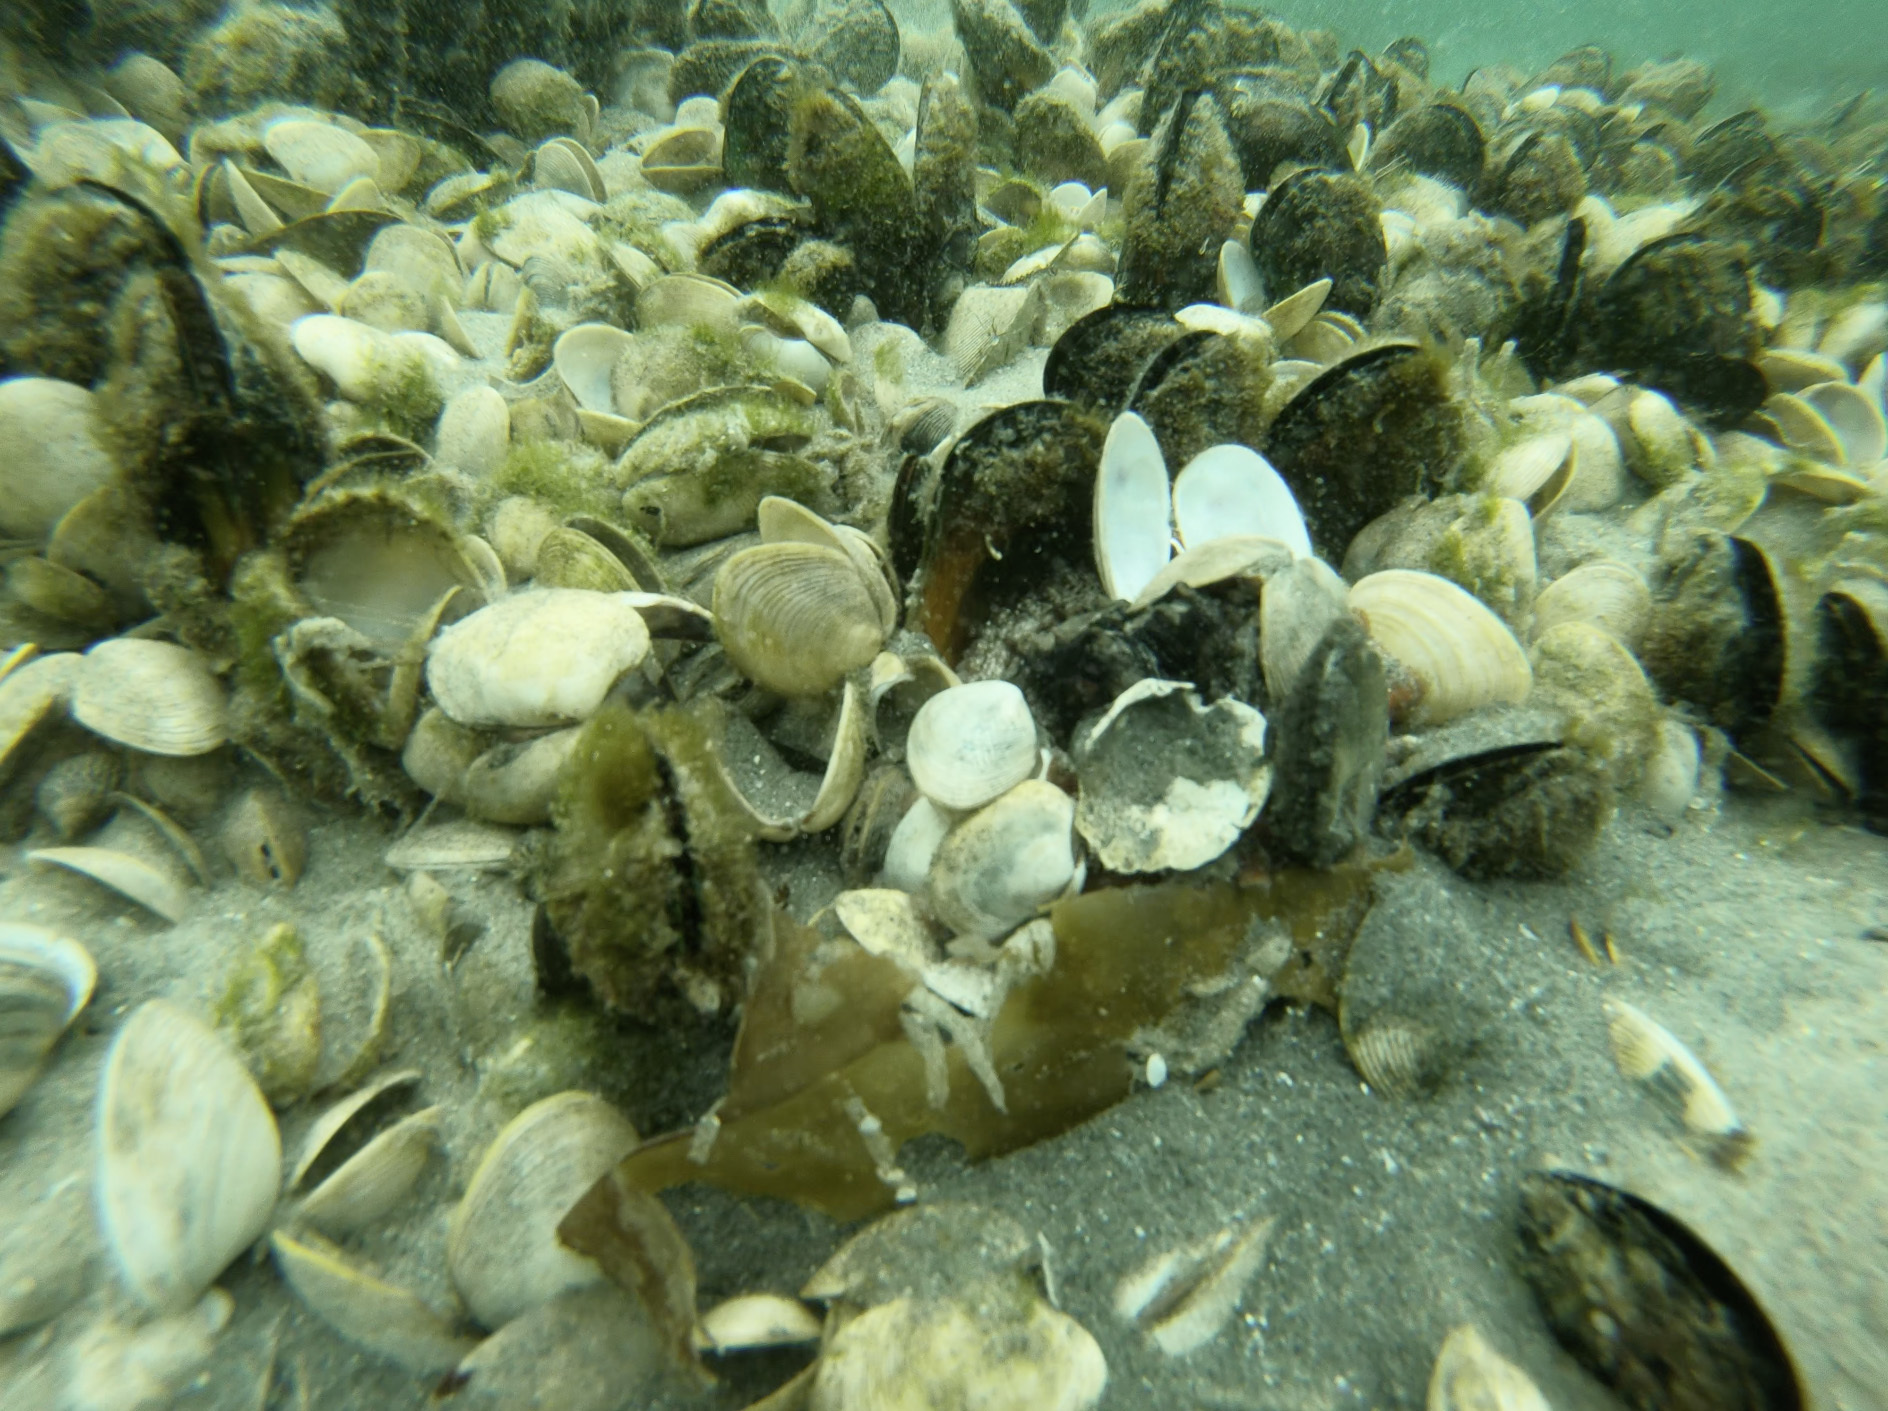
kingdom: Animalia
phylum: Mollusca
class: Cephalopoda
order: Octopoda
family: Octopodidae
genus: Octopus
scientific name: Octopus tetricus
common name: Sydney octopus
